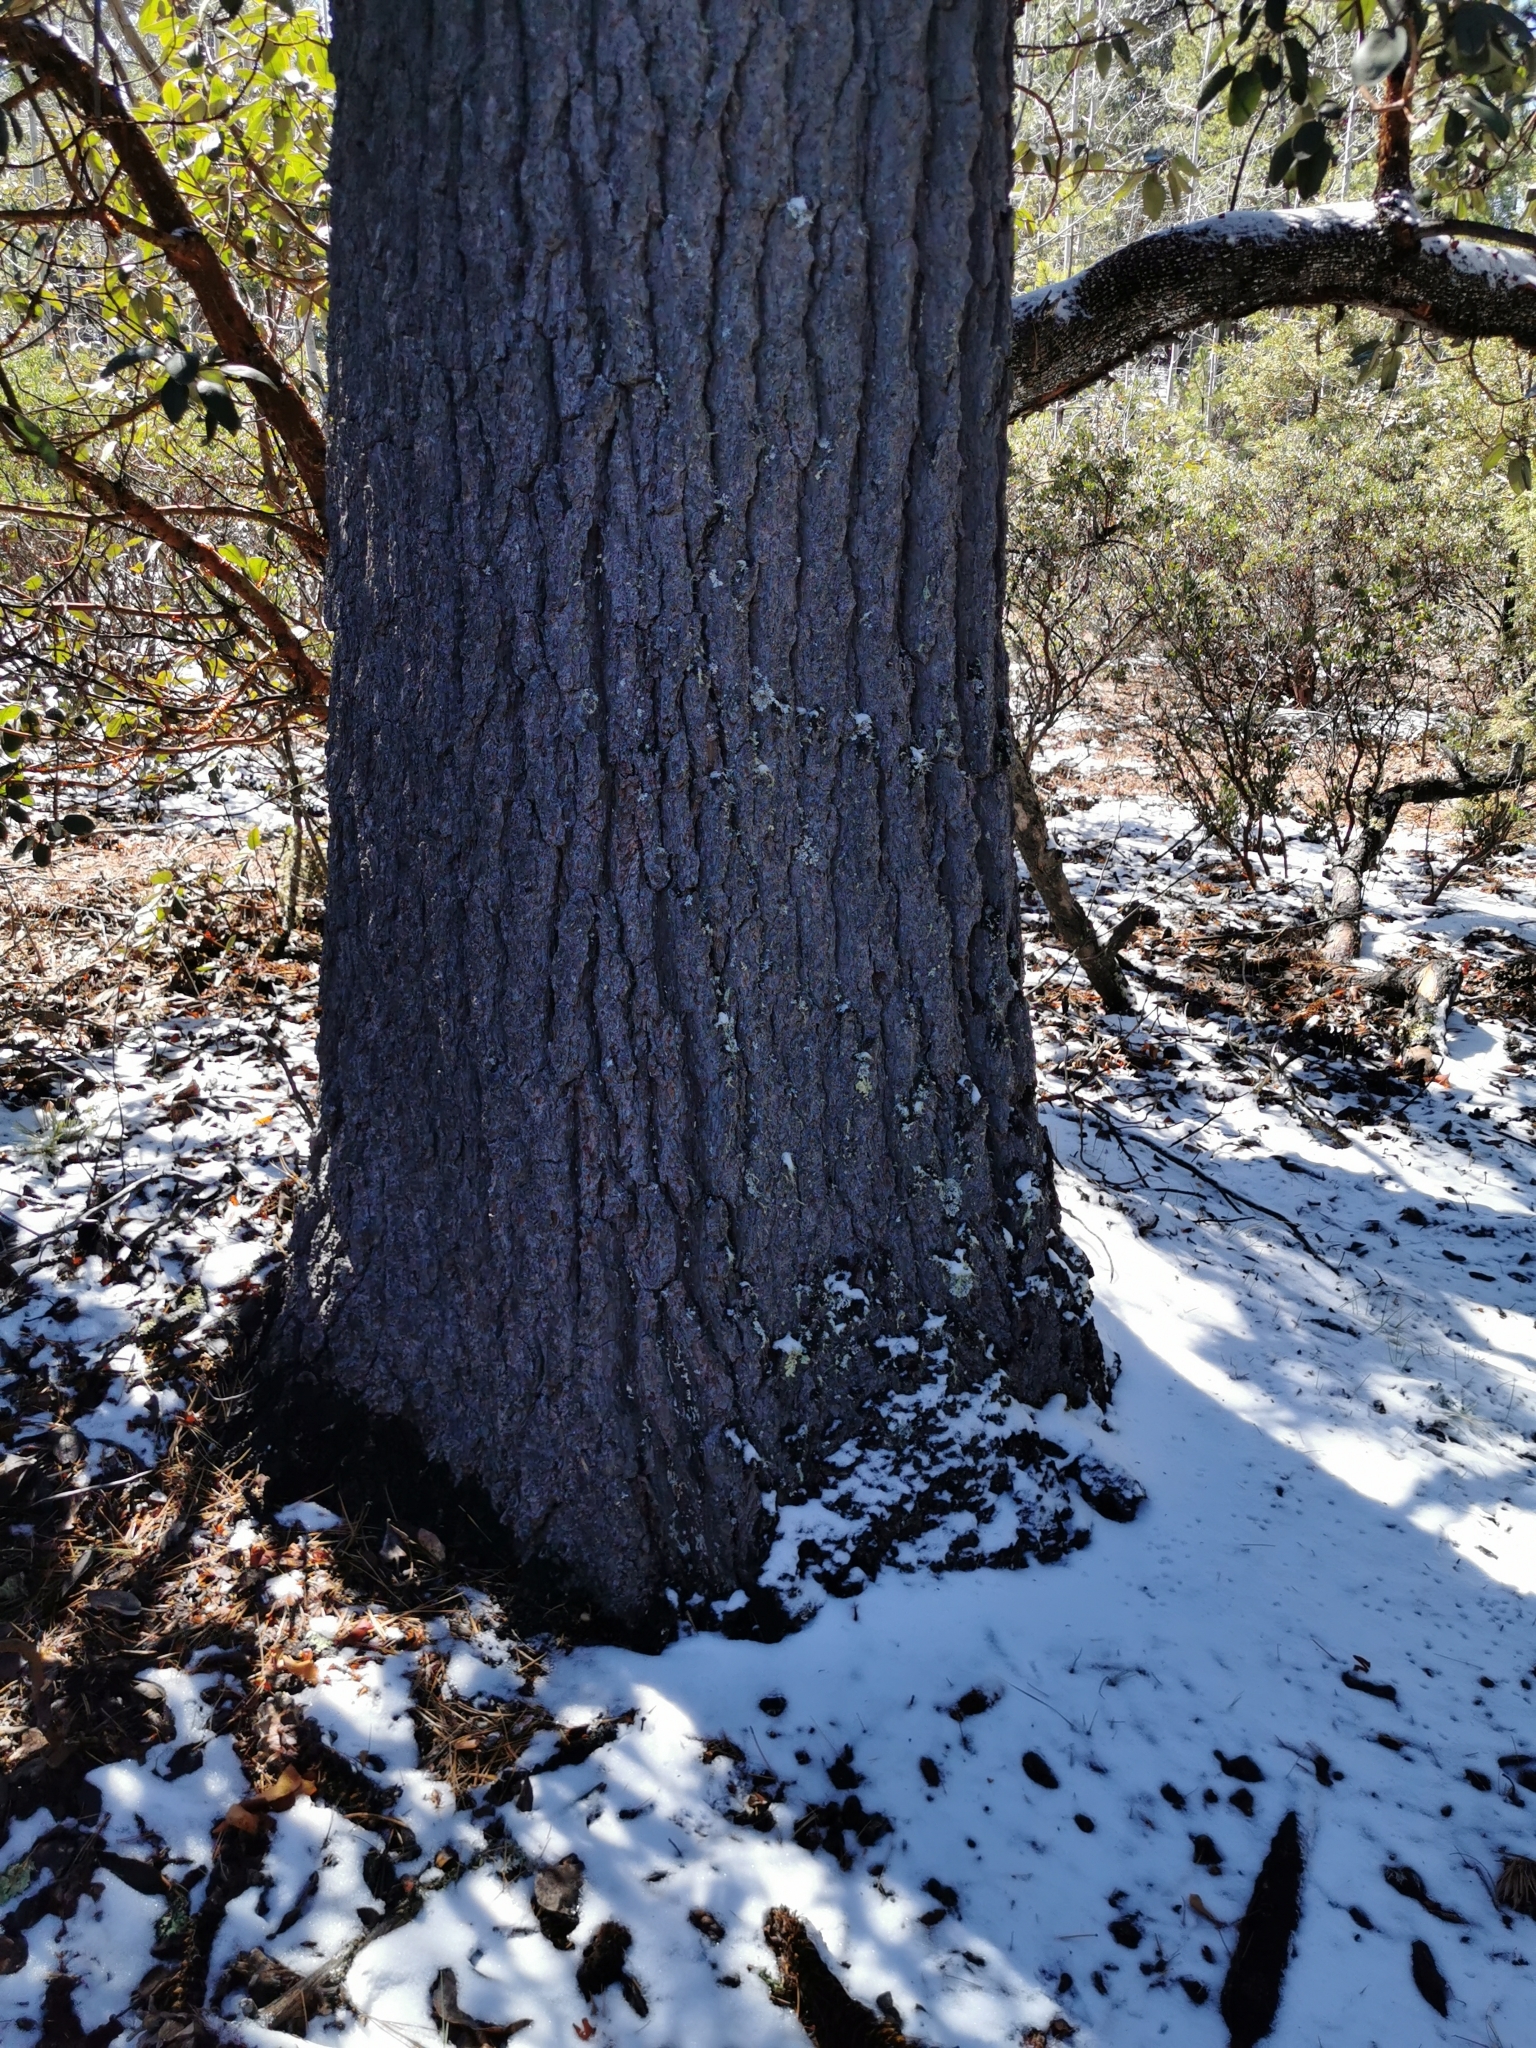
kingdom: Plantae
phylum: Tracheophyta
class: Pinopsida
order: Pinales
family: Pinaceae
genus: Pinus
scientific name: Pinus strobiformis
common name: Southwestern white pine
